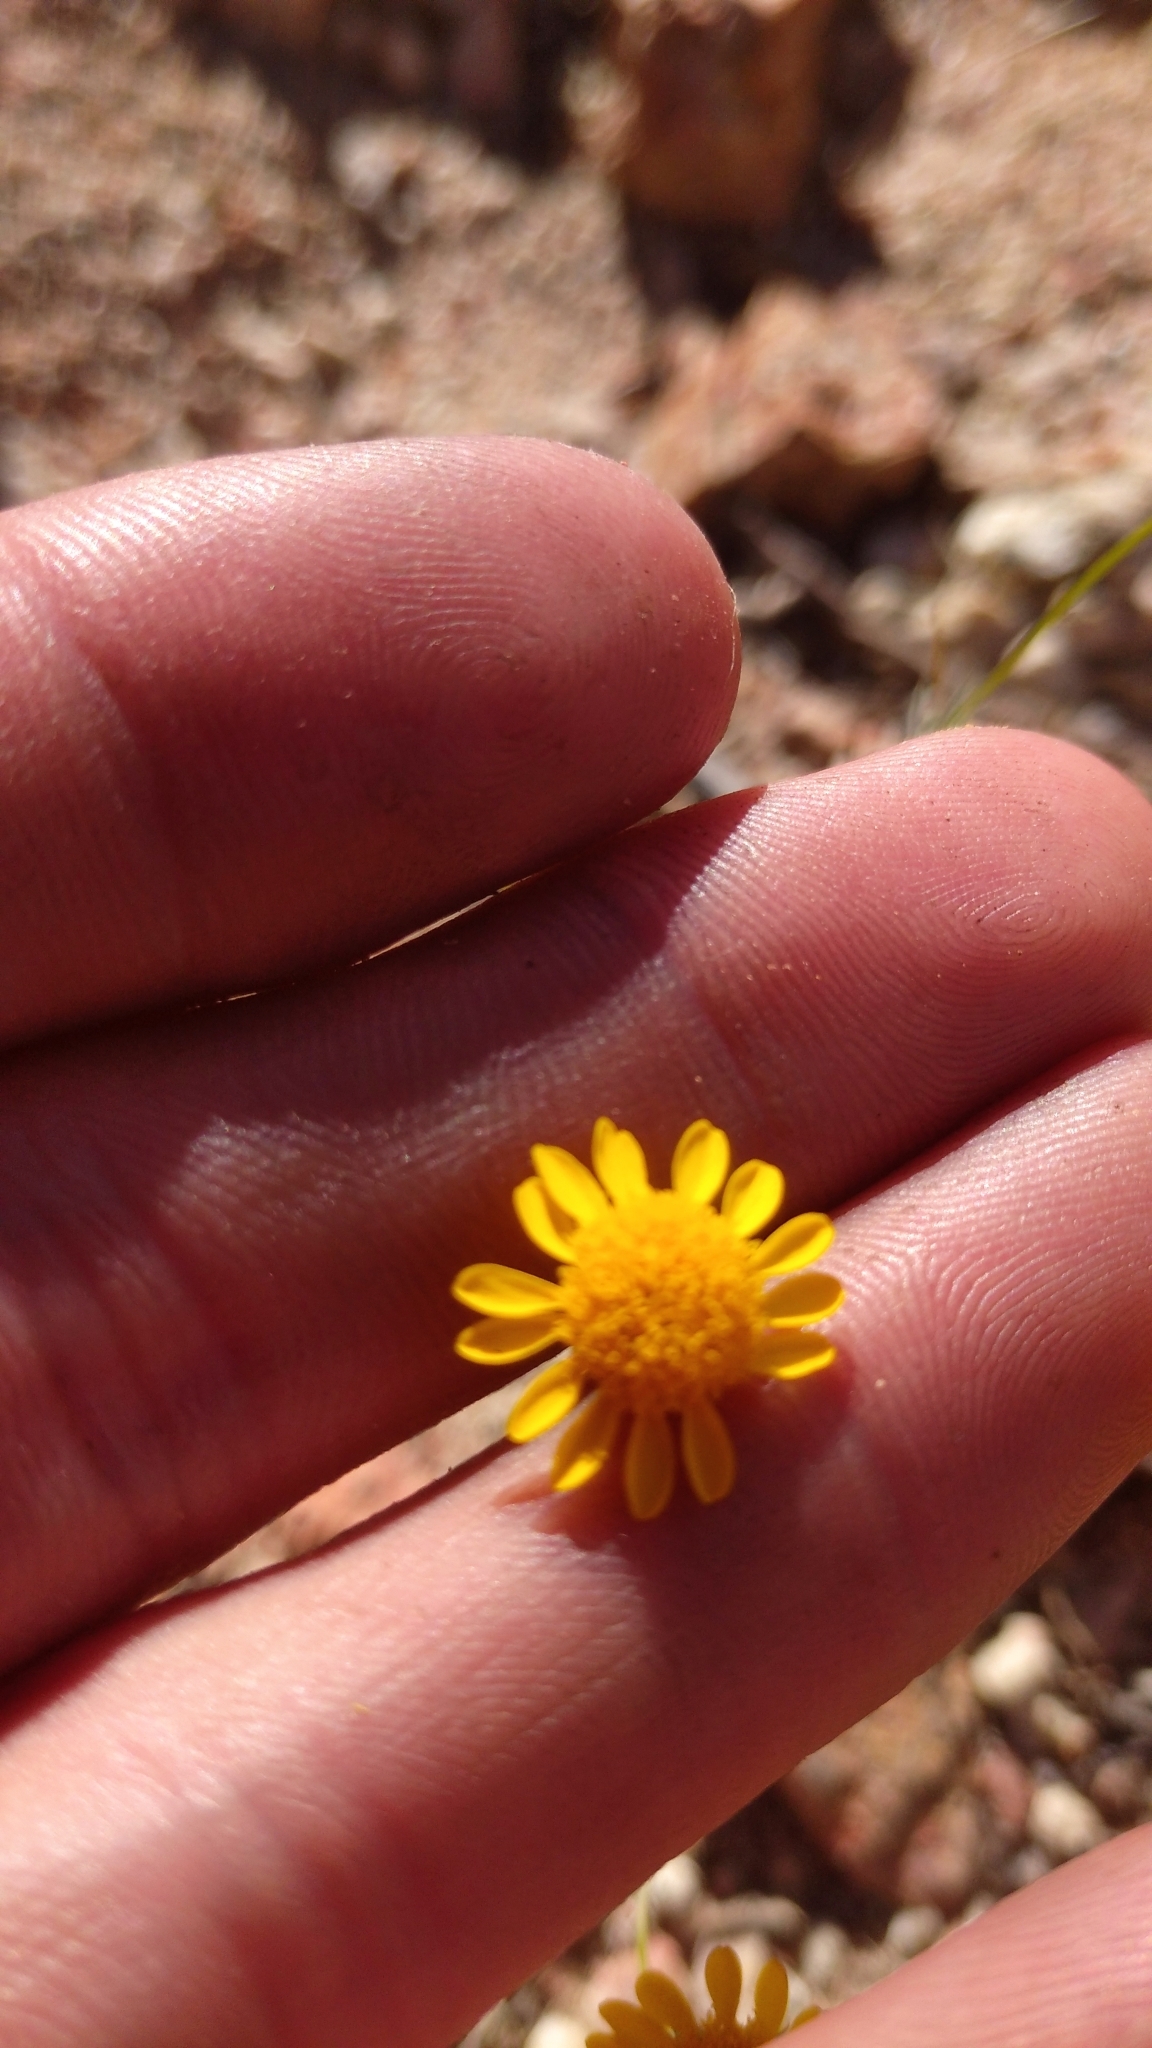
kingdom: Plantae
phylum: Tracheophyta
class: Magnoliopsida
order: Asterales
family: Asteraceae
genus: Thymophylla
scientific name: Thymophylla pentachaeta
